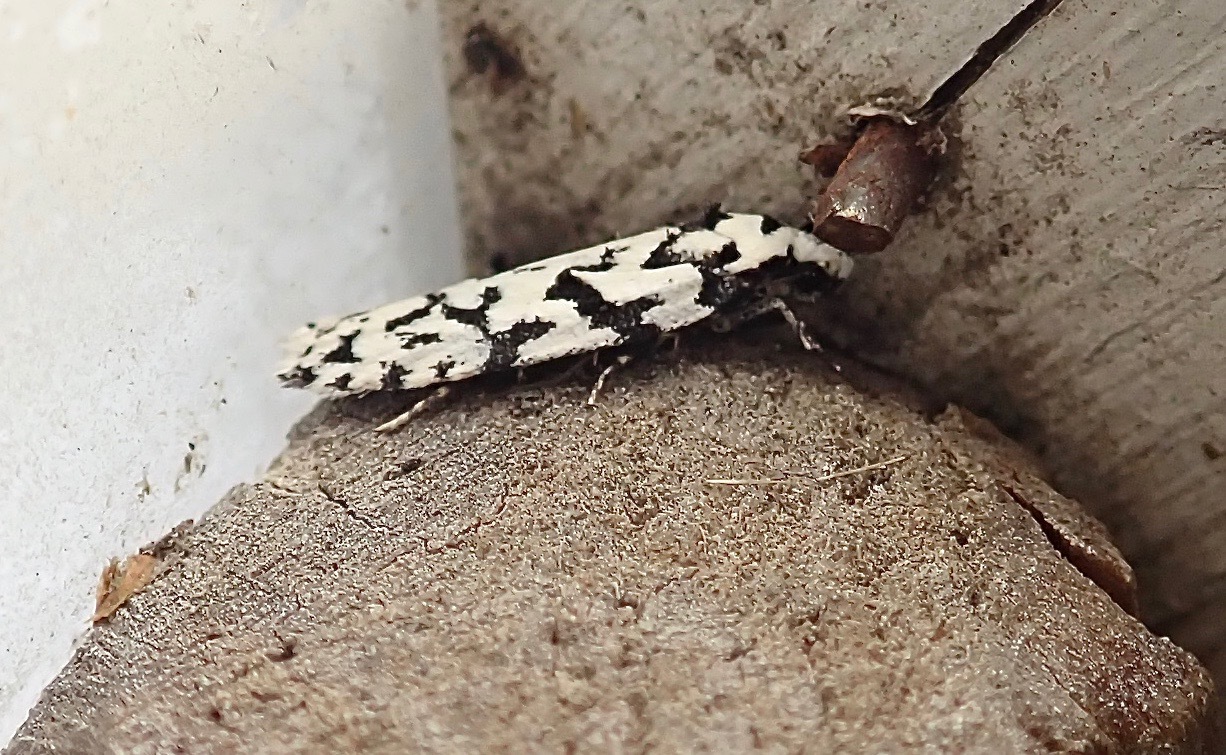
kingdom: Animalia
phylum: Arthropoda
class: Insecta
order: Lepidoptera
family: Oecophoridae
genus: Izatha
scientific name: Izatha katadiktya
